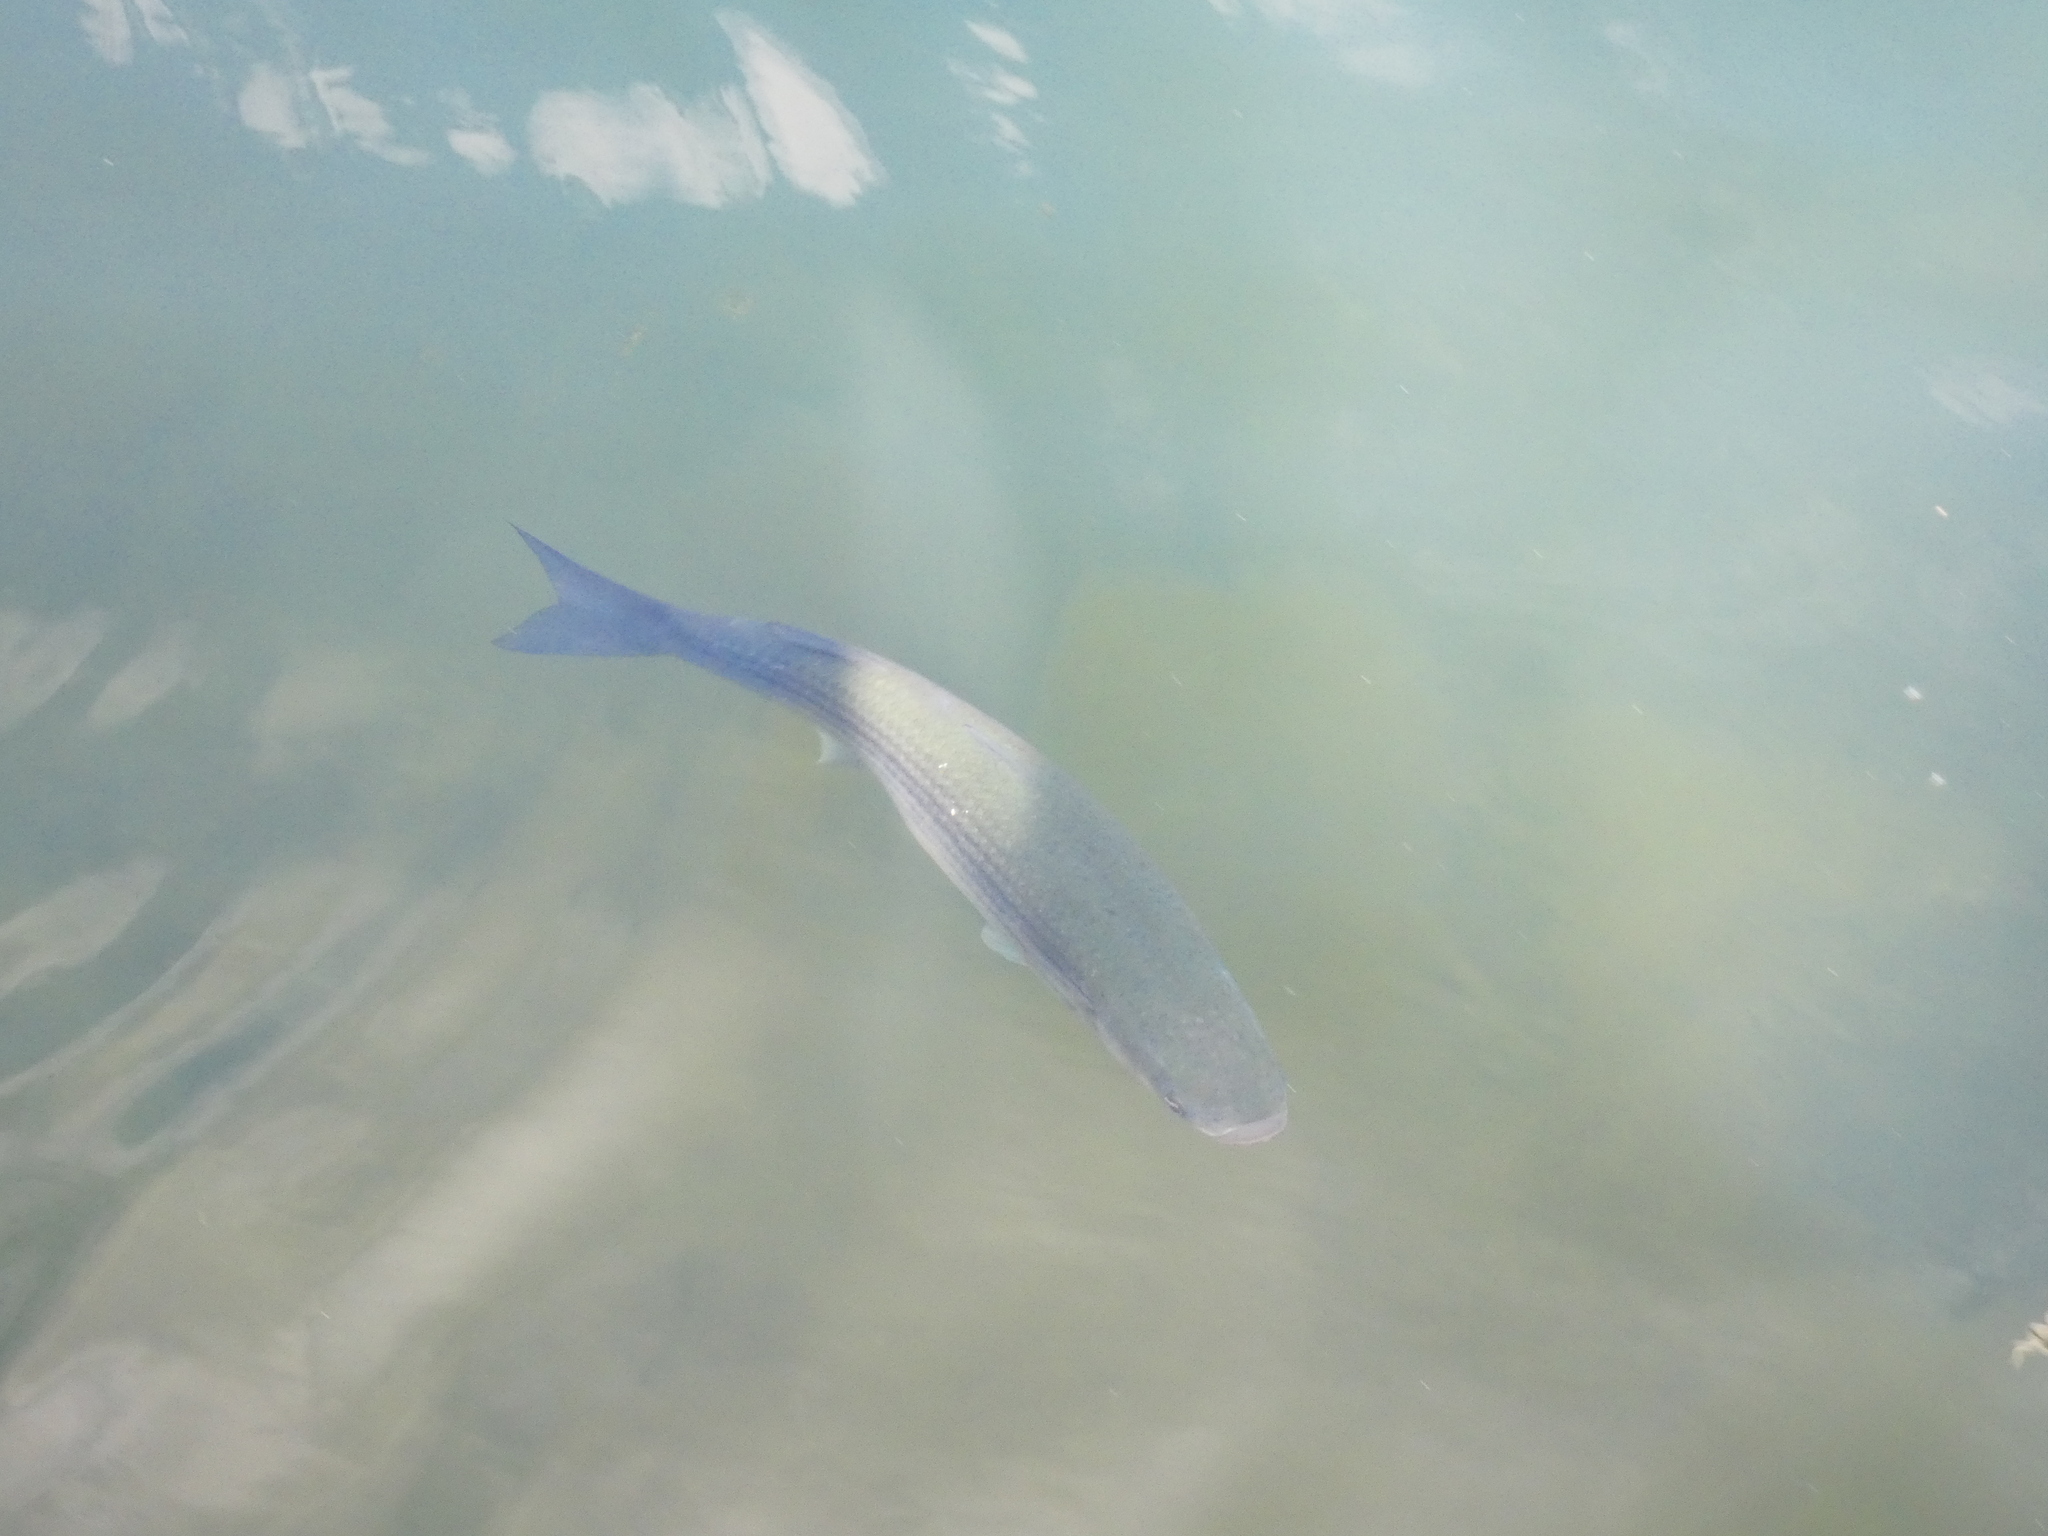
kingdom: Animalia
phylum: Chordata
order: Mugiliformes
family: Mugilidae
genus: Chelon
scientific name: Chelon labrosus
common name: Thick-lipped mullet
